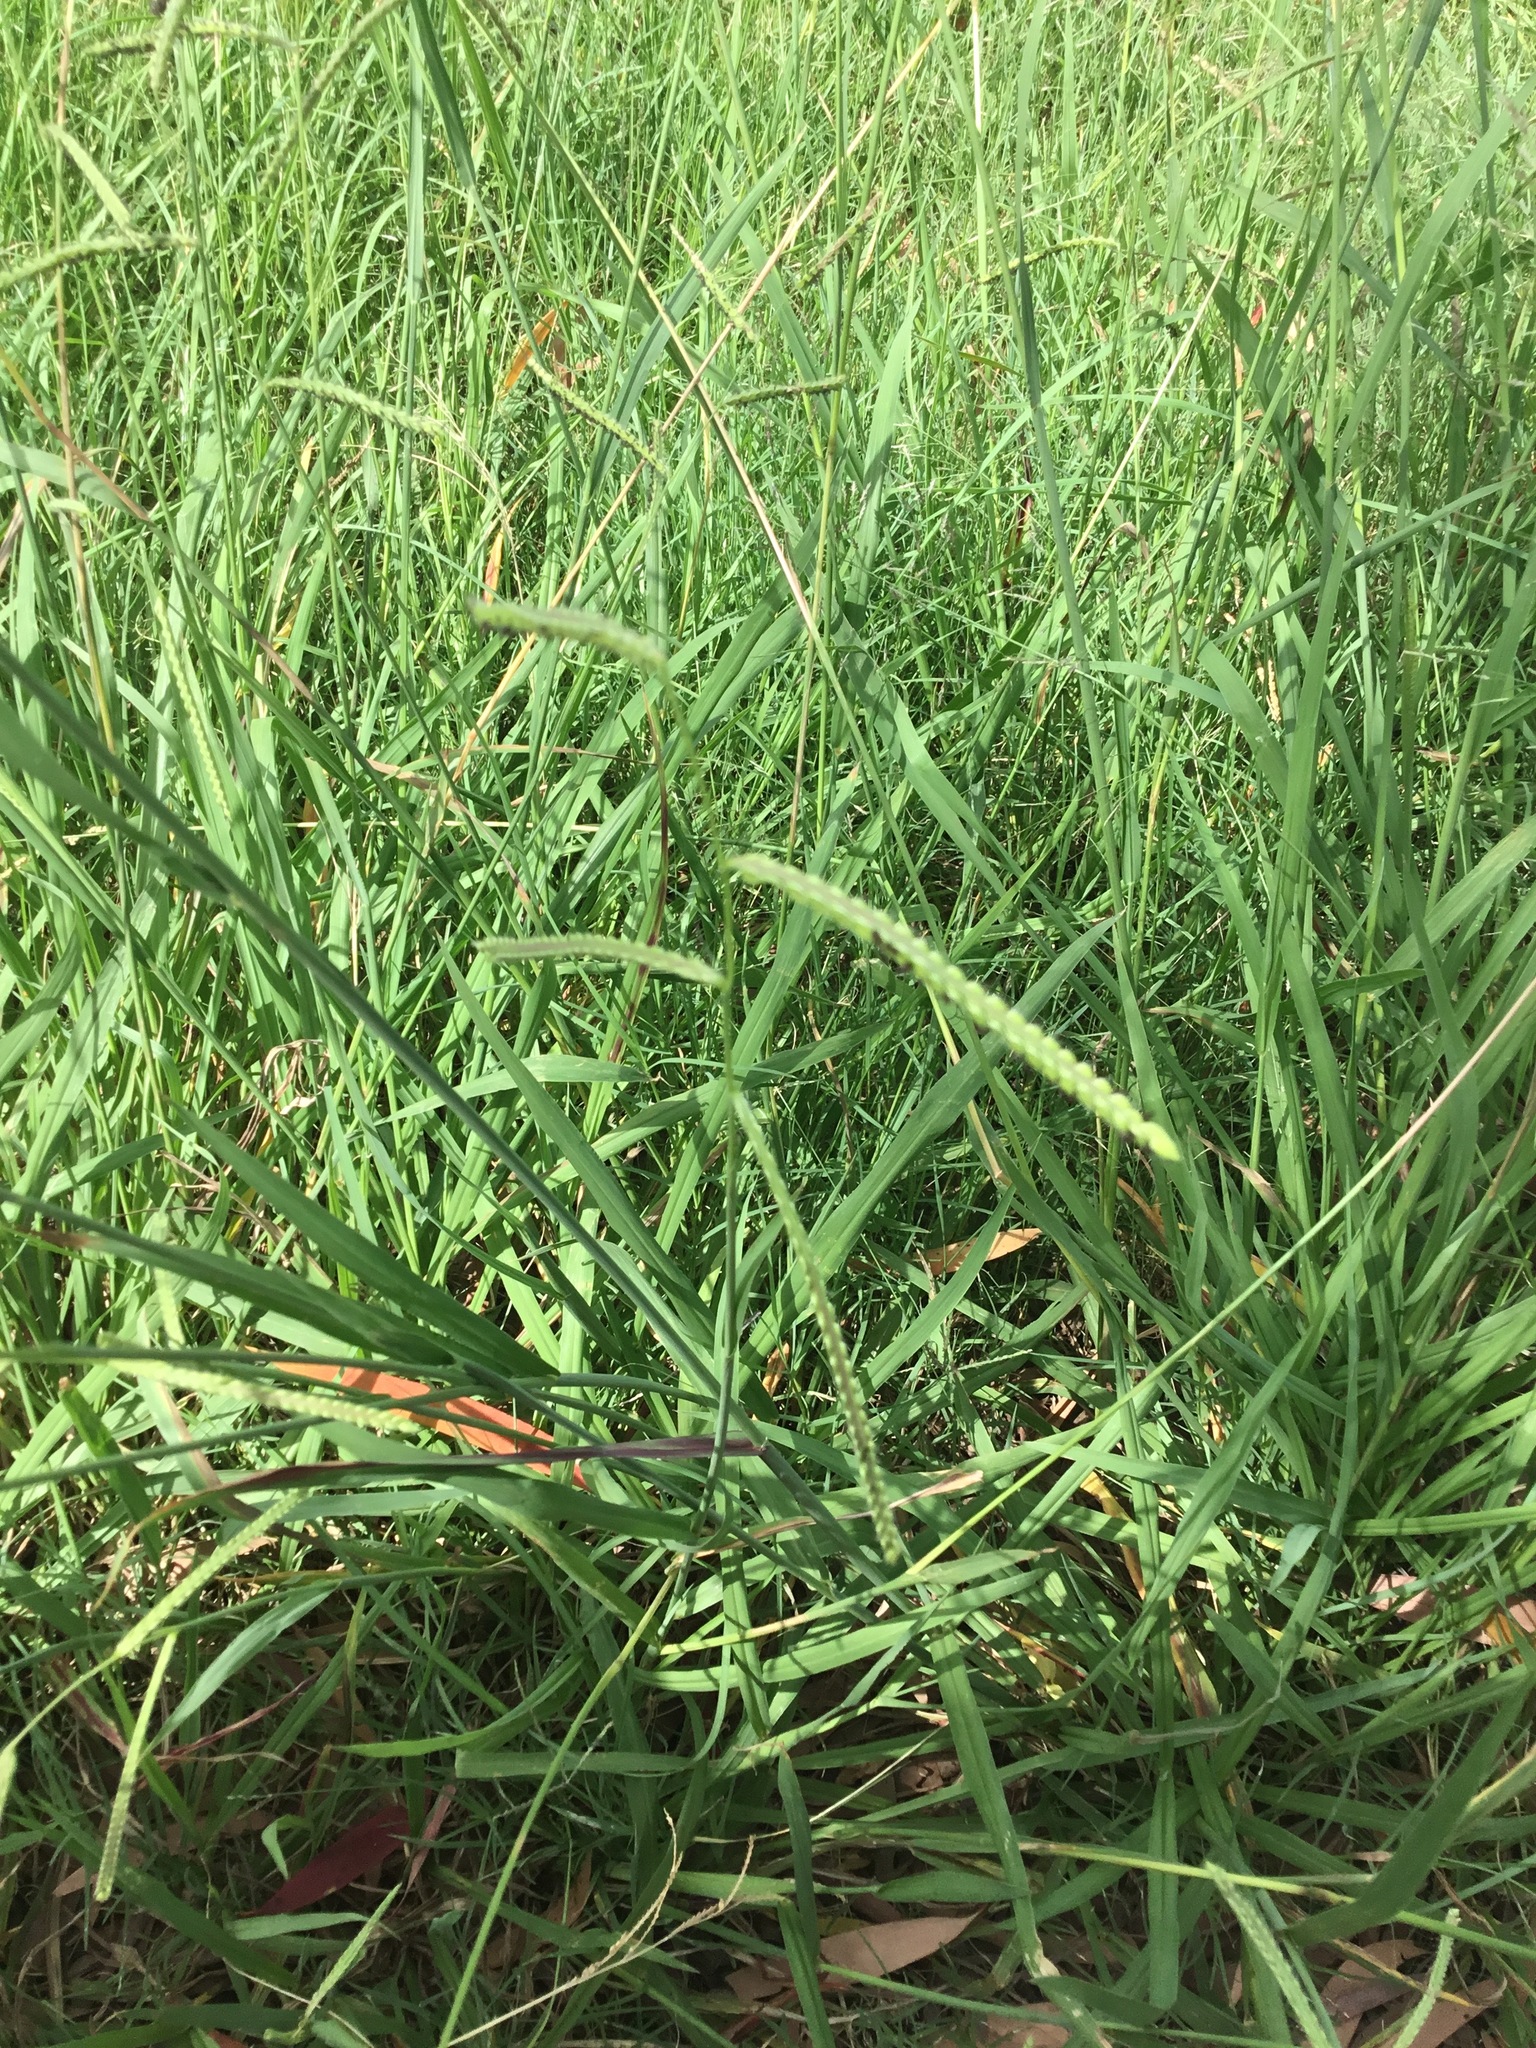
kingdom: Plantae
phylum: Tracheophyta
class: Liliopsida
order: Poales
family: Poaceae
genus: Paspalum
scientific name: Paspalum dilatatum
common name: Dallisgrass
